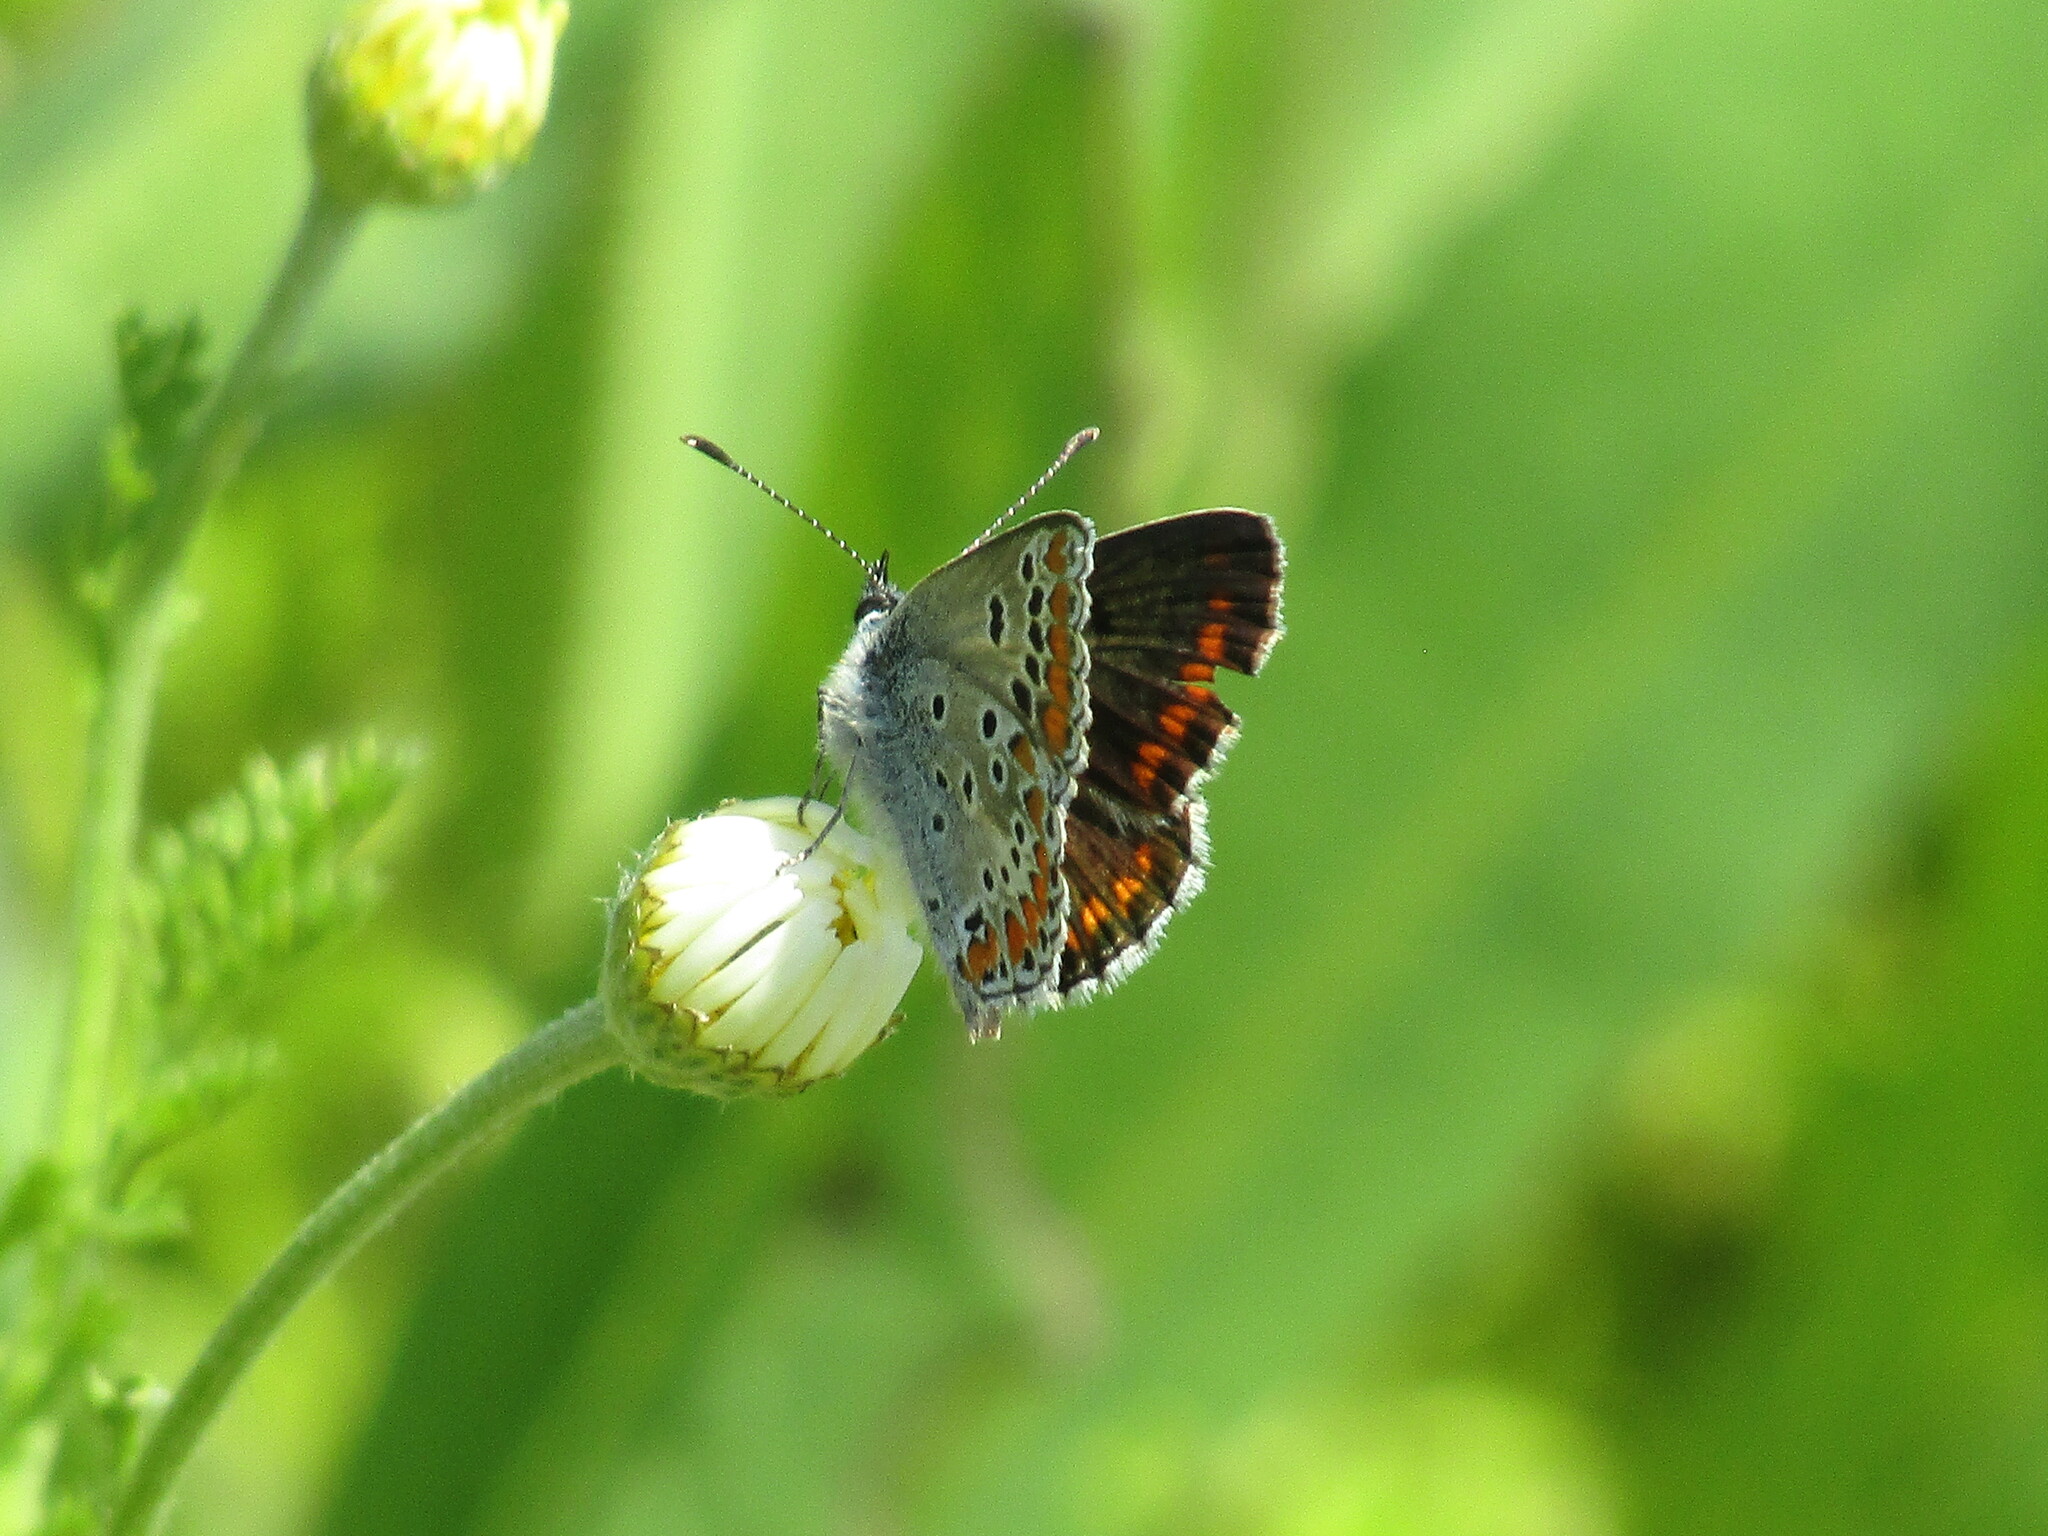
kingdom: Animalia
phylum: Arthropoda
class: Insecta
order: Lepidoptera
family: Lycaenidae
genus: Aricia
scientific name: Aricia agestis
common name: Brown argus
